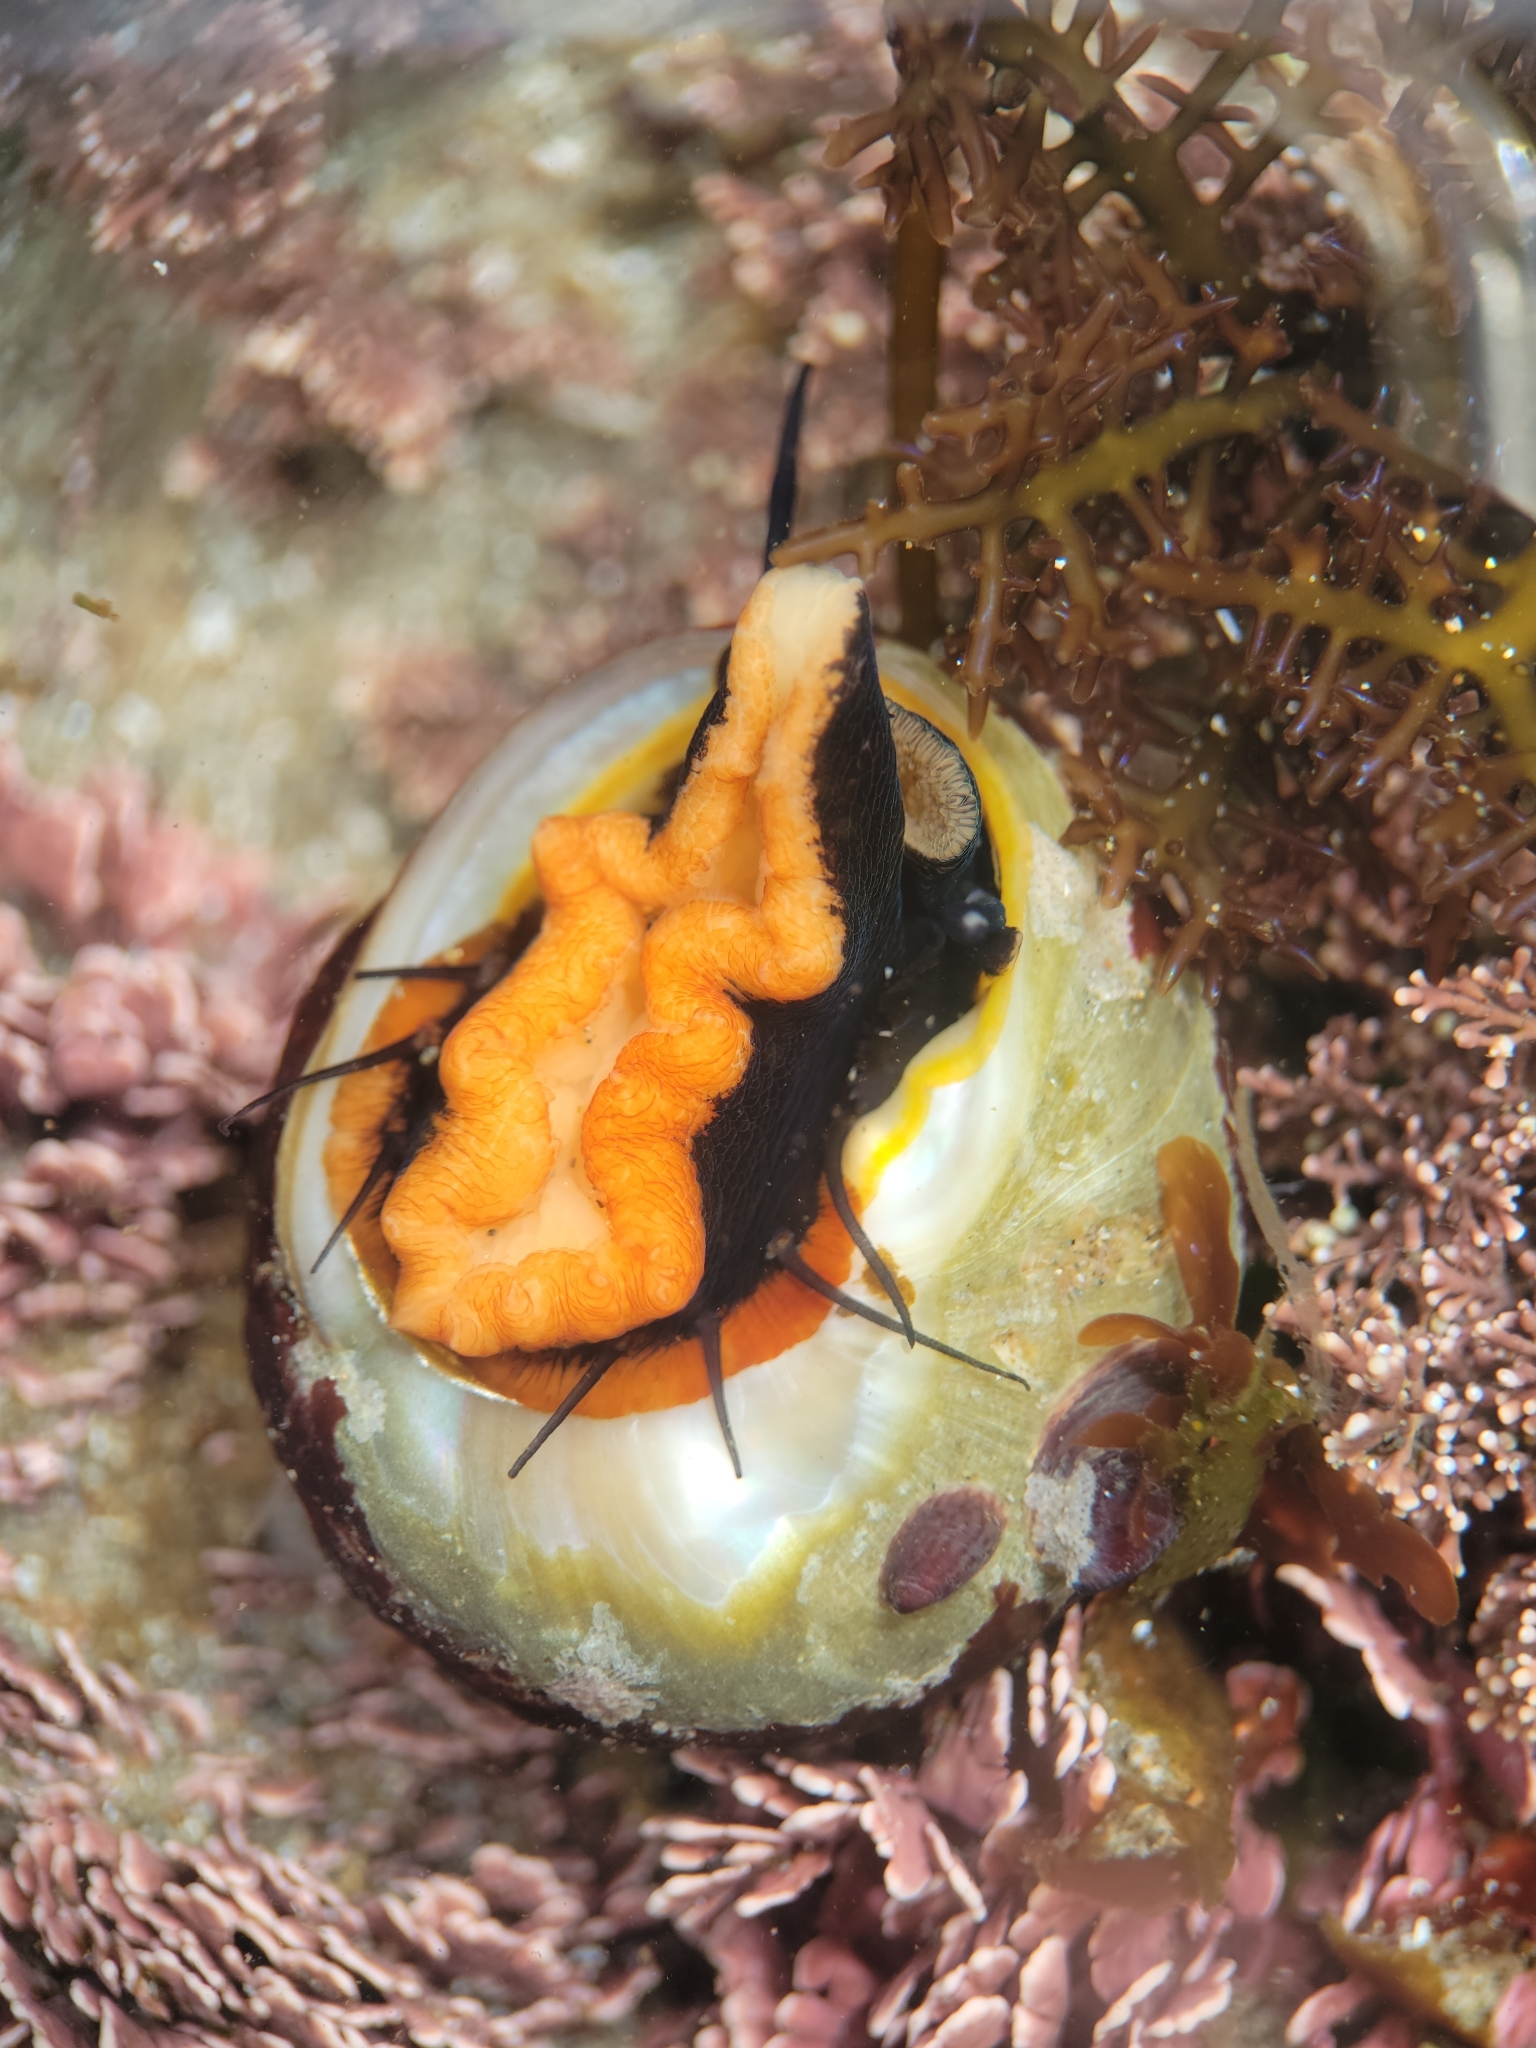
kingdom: Animalia
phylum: Mollusca
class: Gastropoda
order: Trochida
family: Tegulidae
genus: Tegula
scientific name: Tegula brunnea
